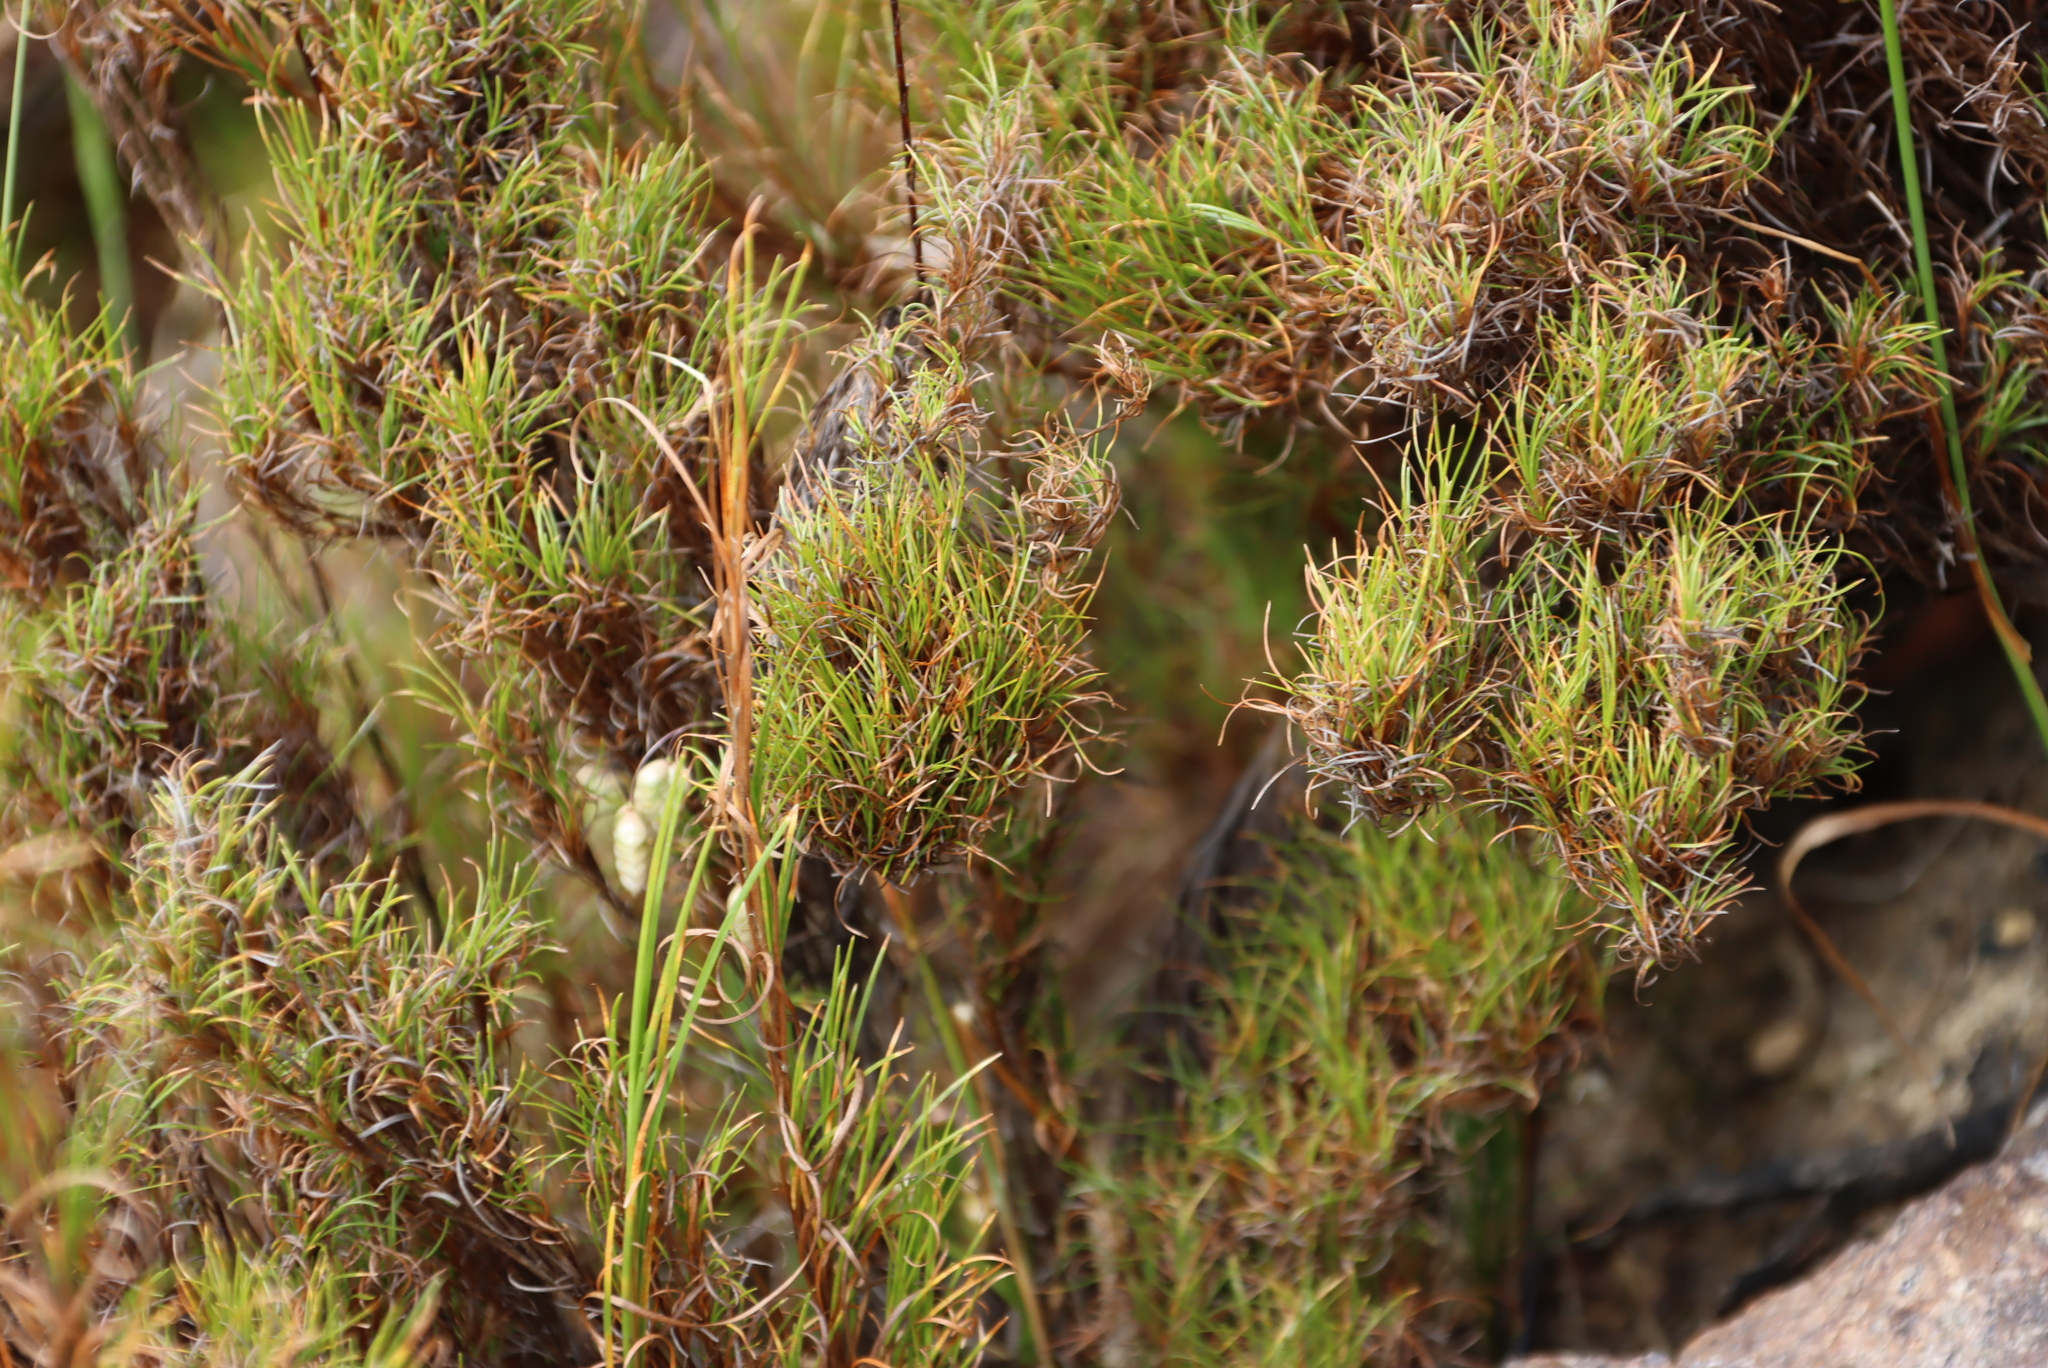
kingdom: Plantae
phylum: Tracheophyta
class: Liliopsida
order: Poales
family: Cyperaceae
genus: Ficinia
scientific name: Ficinia ramosissima
